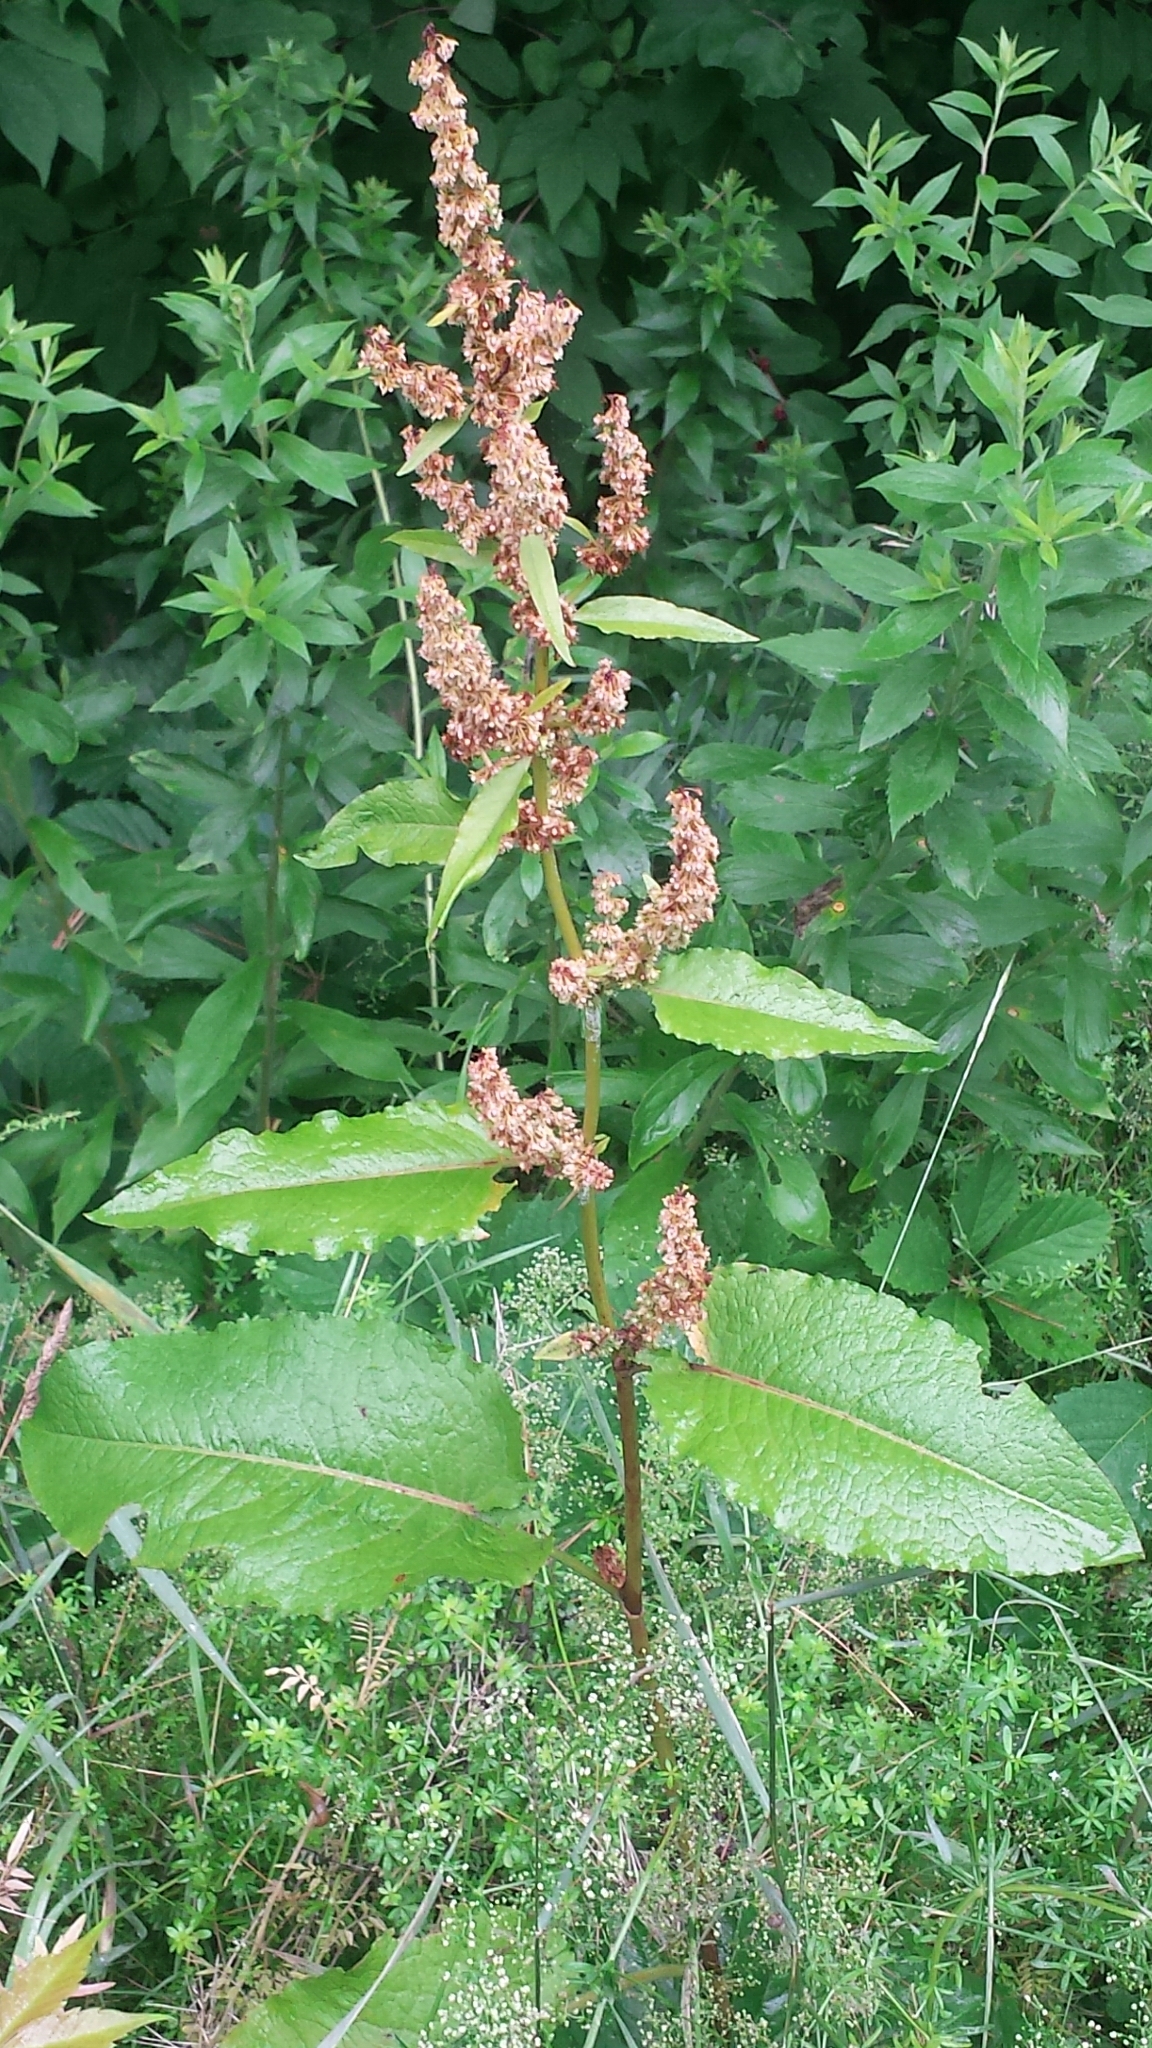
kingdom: Plantae
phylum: Tracheophyta
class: Magnoliopsida
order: Caryophyllales
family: Polygonaceae
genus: Rumex
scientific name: Rumex obtusifolius
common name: Bitter dock
